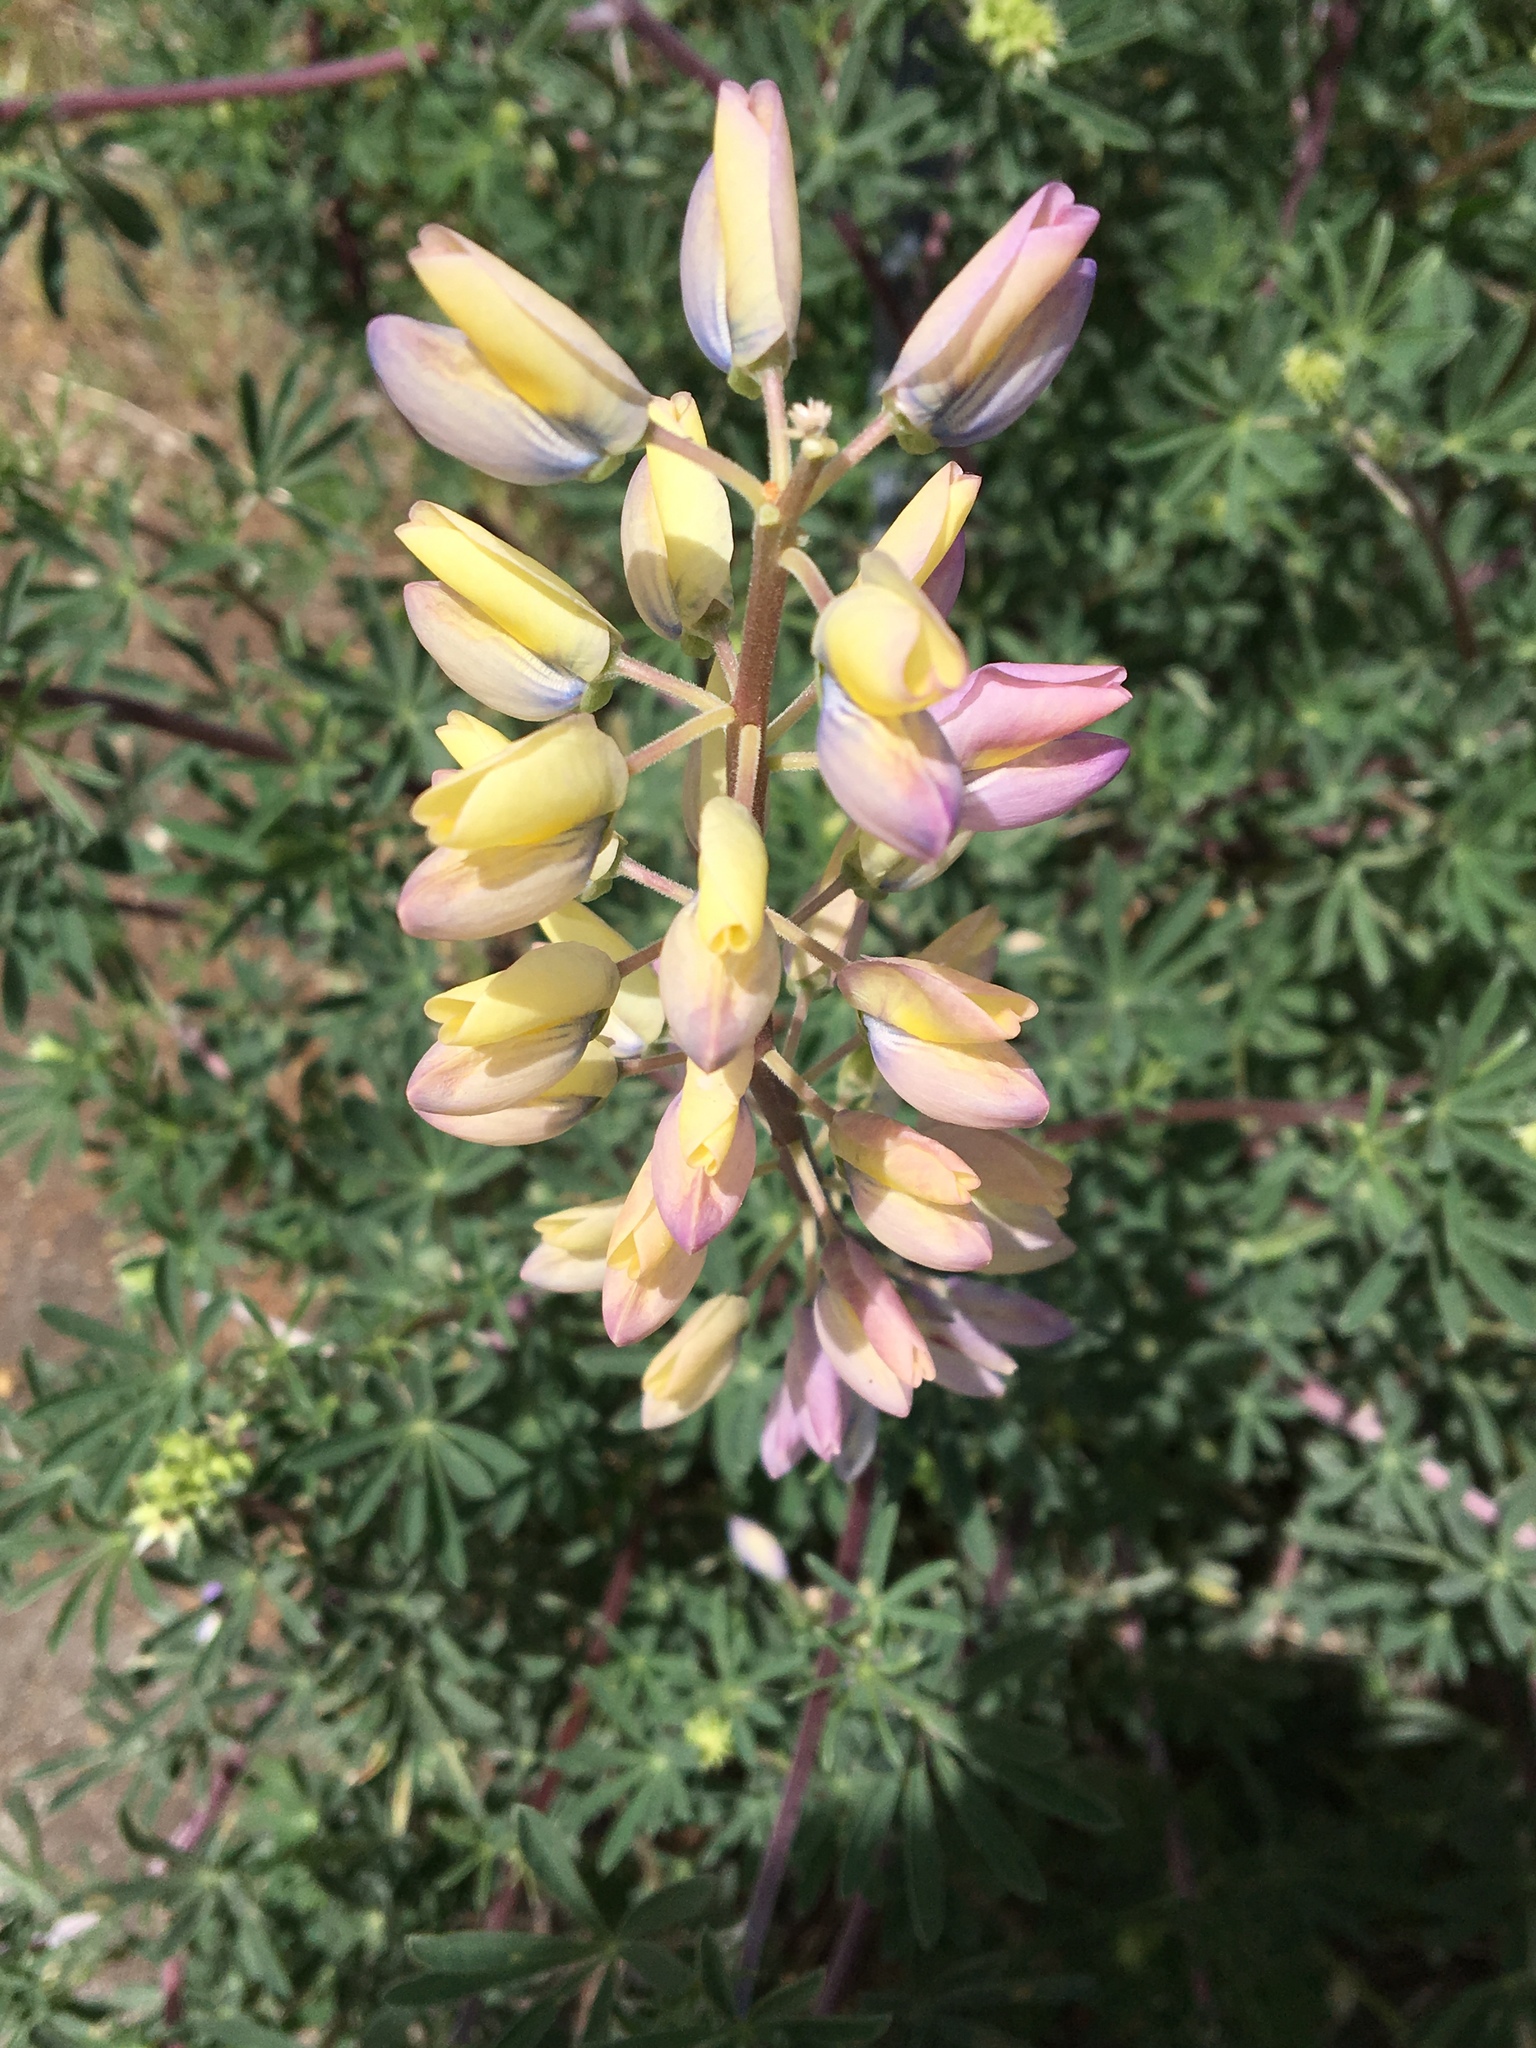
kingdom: Plantae
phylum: Tracheophyta
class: Magnoliopsida
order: Fabales
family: Fabaceae
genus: Lupinus
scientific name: Lupinus arboreus
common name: Yellow bush lupine
